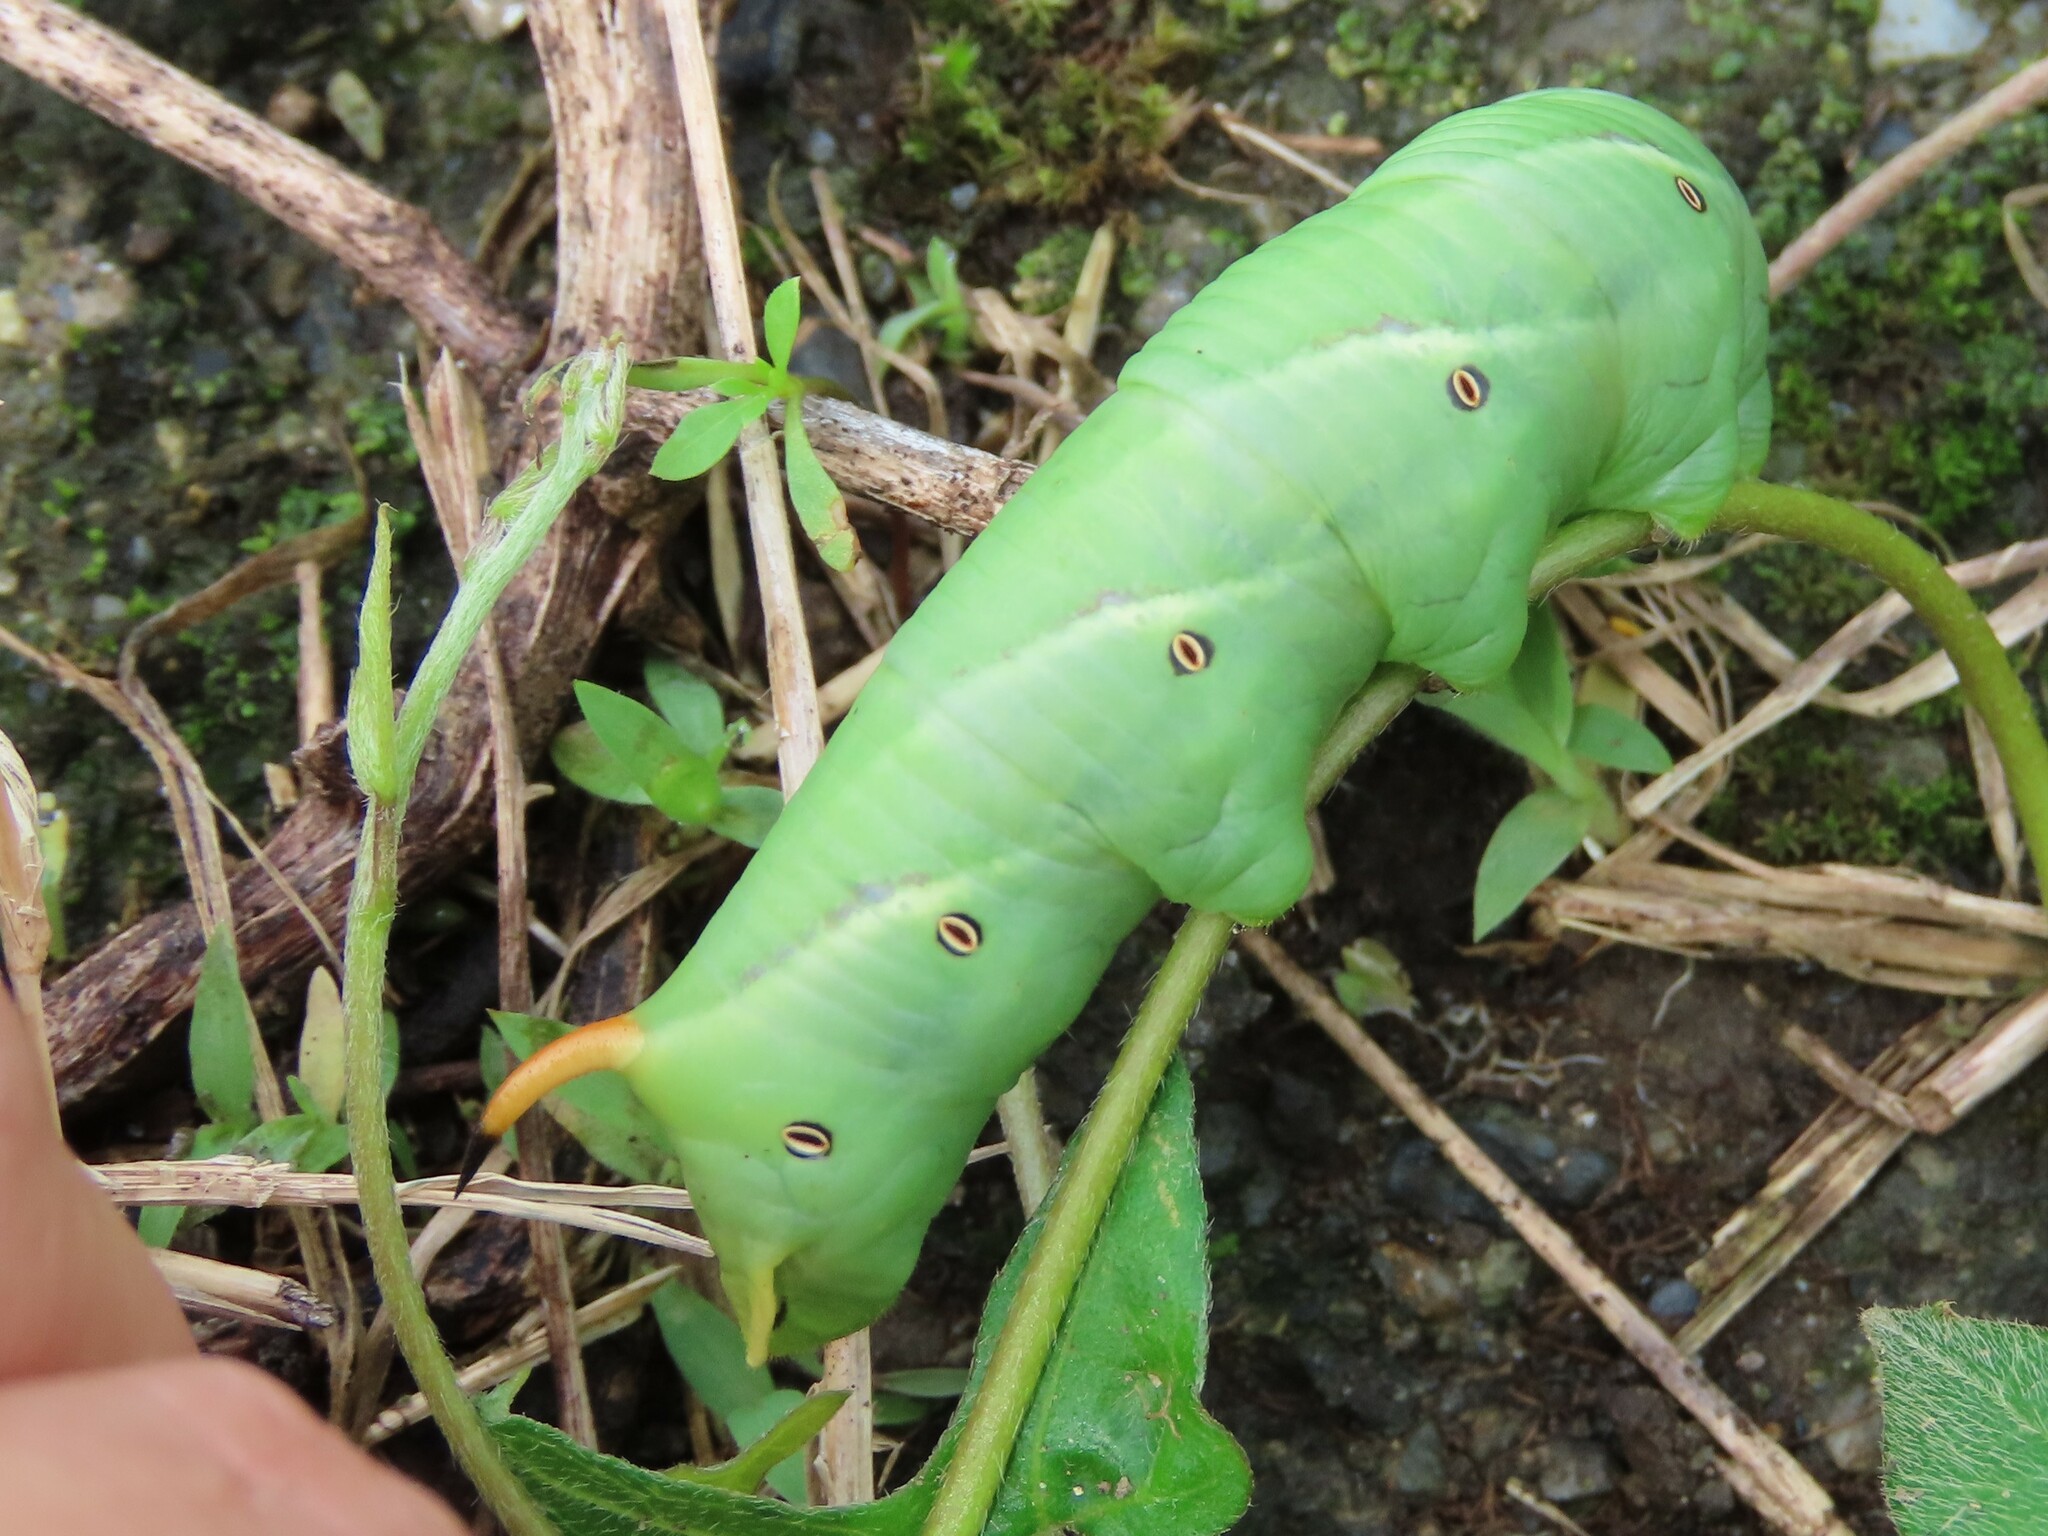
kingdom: Animalia
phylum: Arthropoda
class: Insecta
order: Lepidoptera
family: Sphingidae
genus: Agrius
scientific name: Agrius convolvuli
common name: Convolvulus hawkmoth
